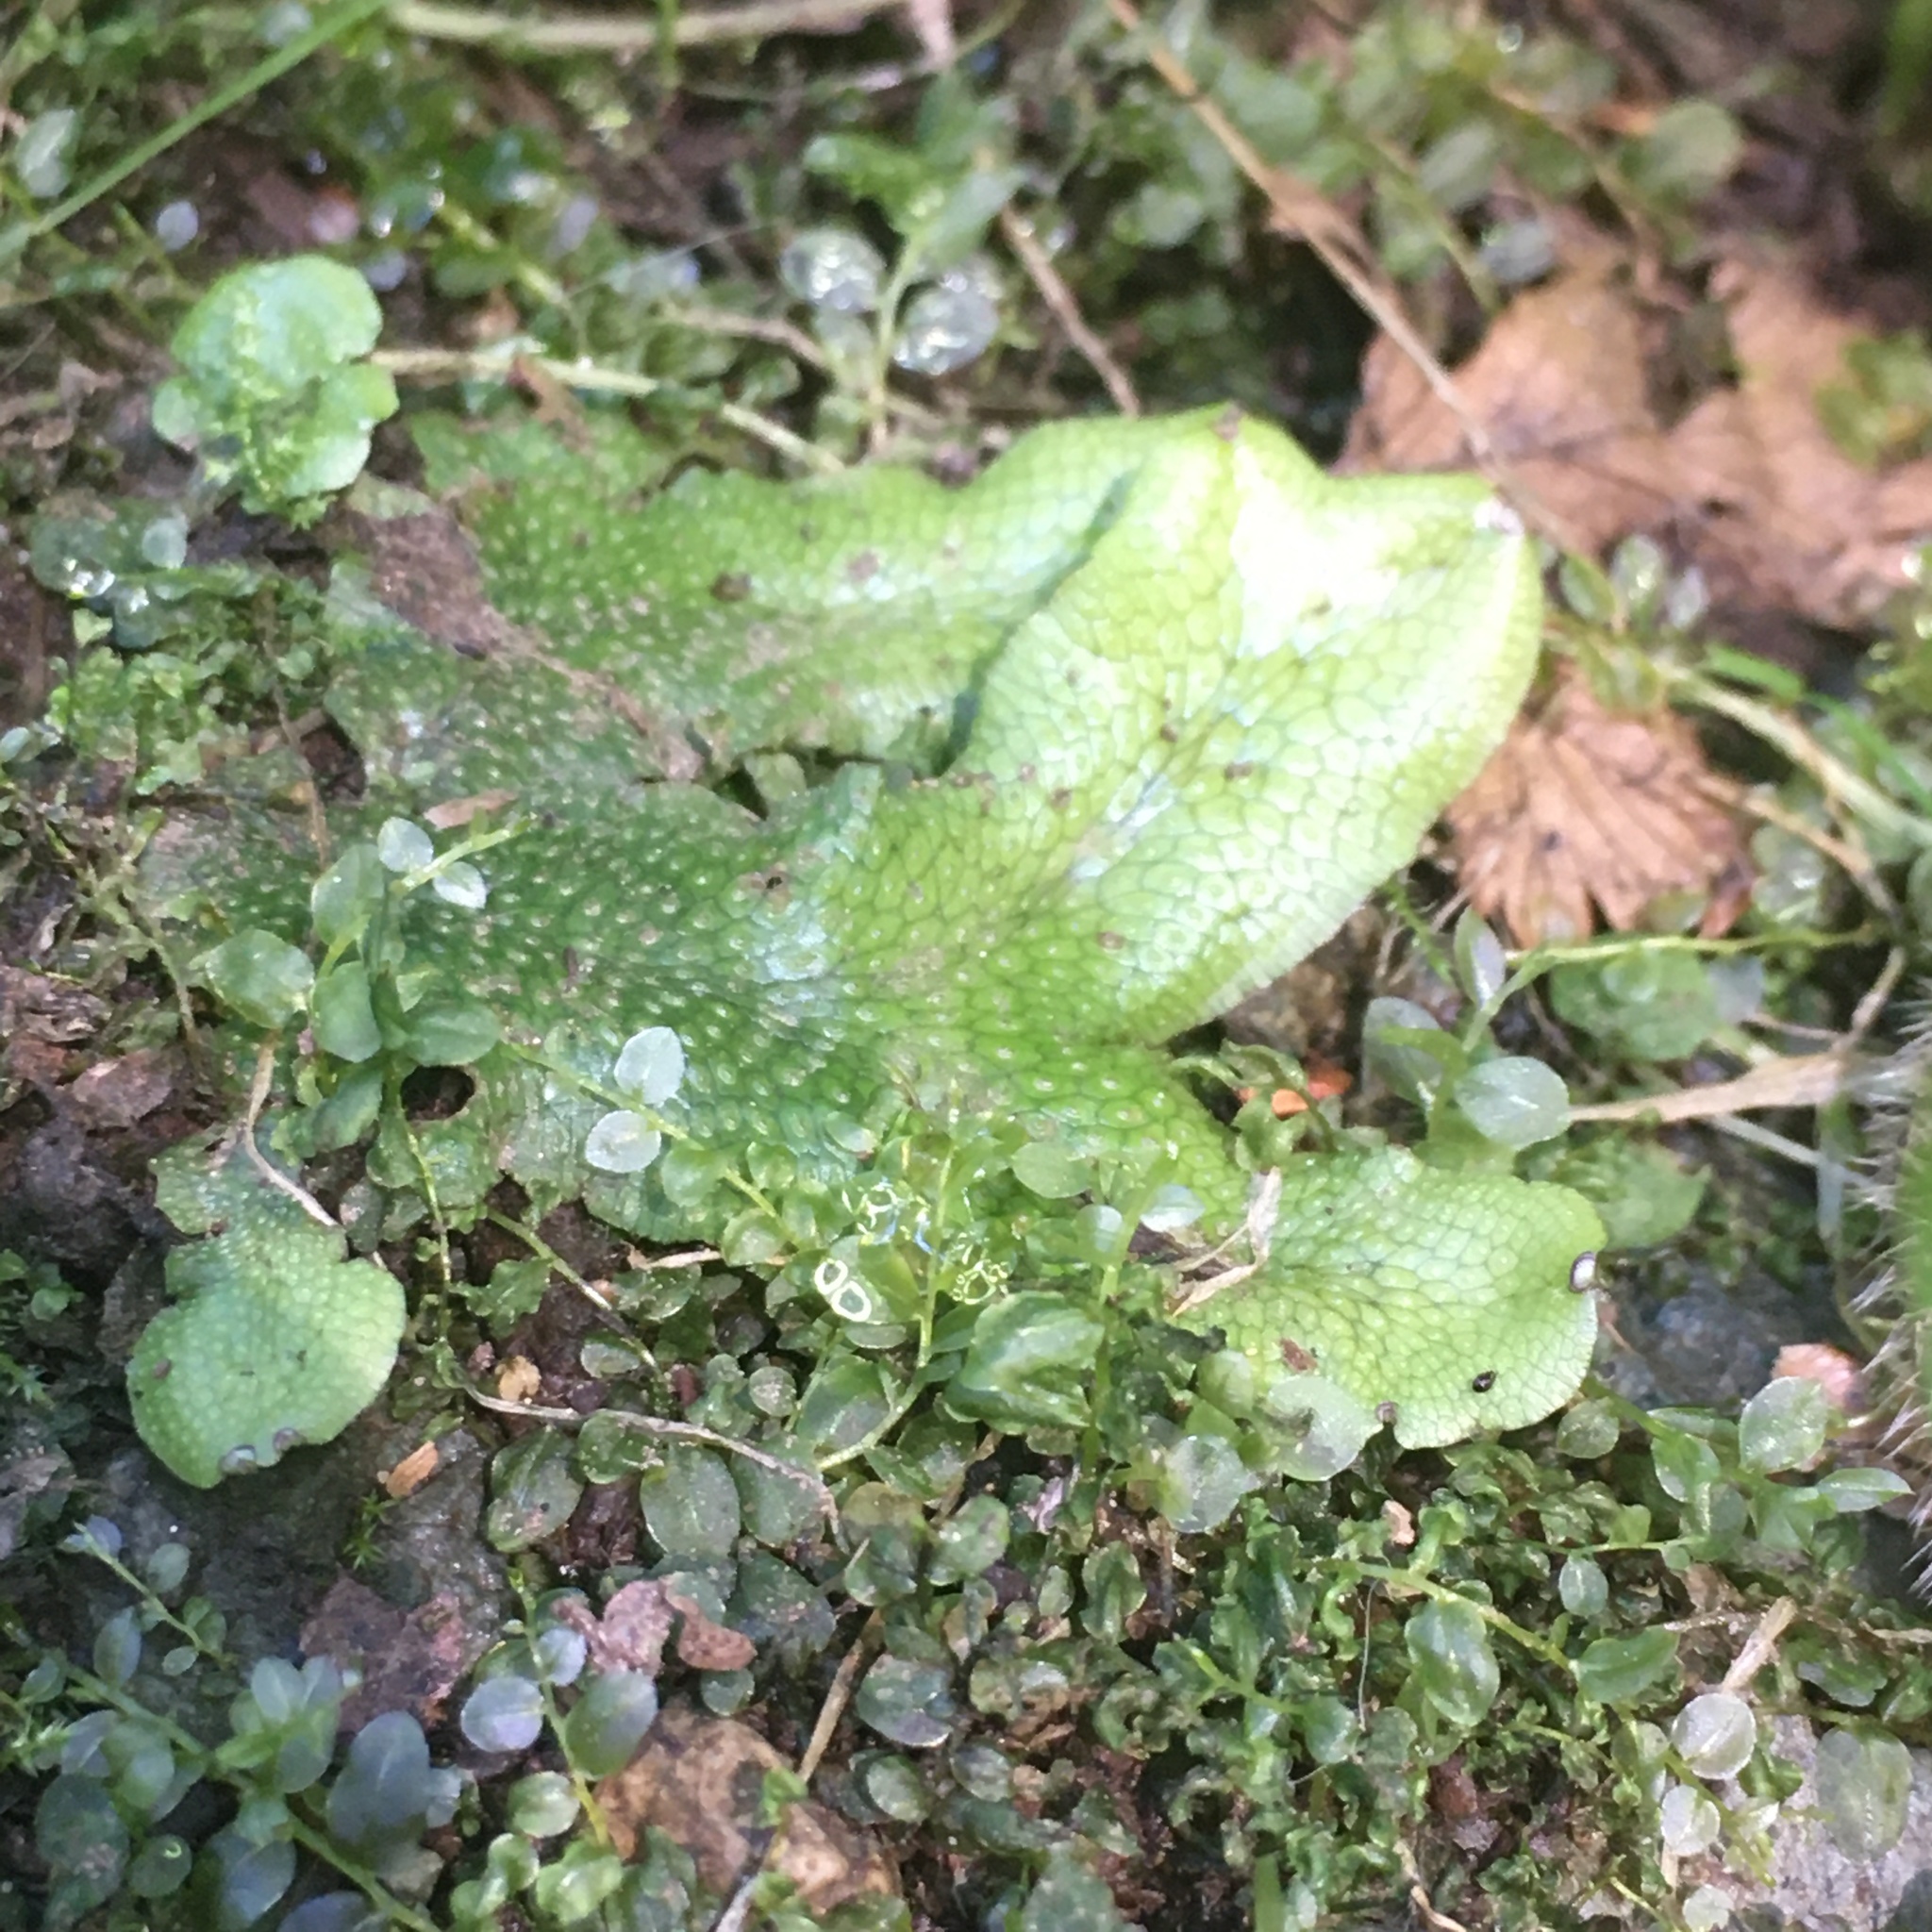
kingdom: Plantae
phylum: Marchantiophyta
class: Marchantiopsida
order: Marchantiales
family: Conocephalaceae
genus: Conocephalum
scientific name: Conocephalum conicum
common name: Great scented liverwort
